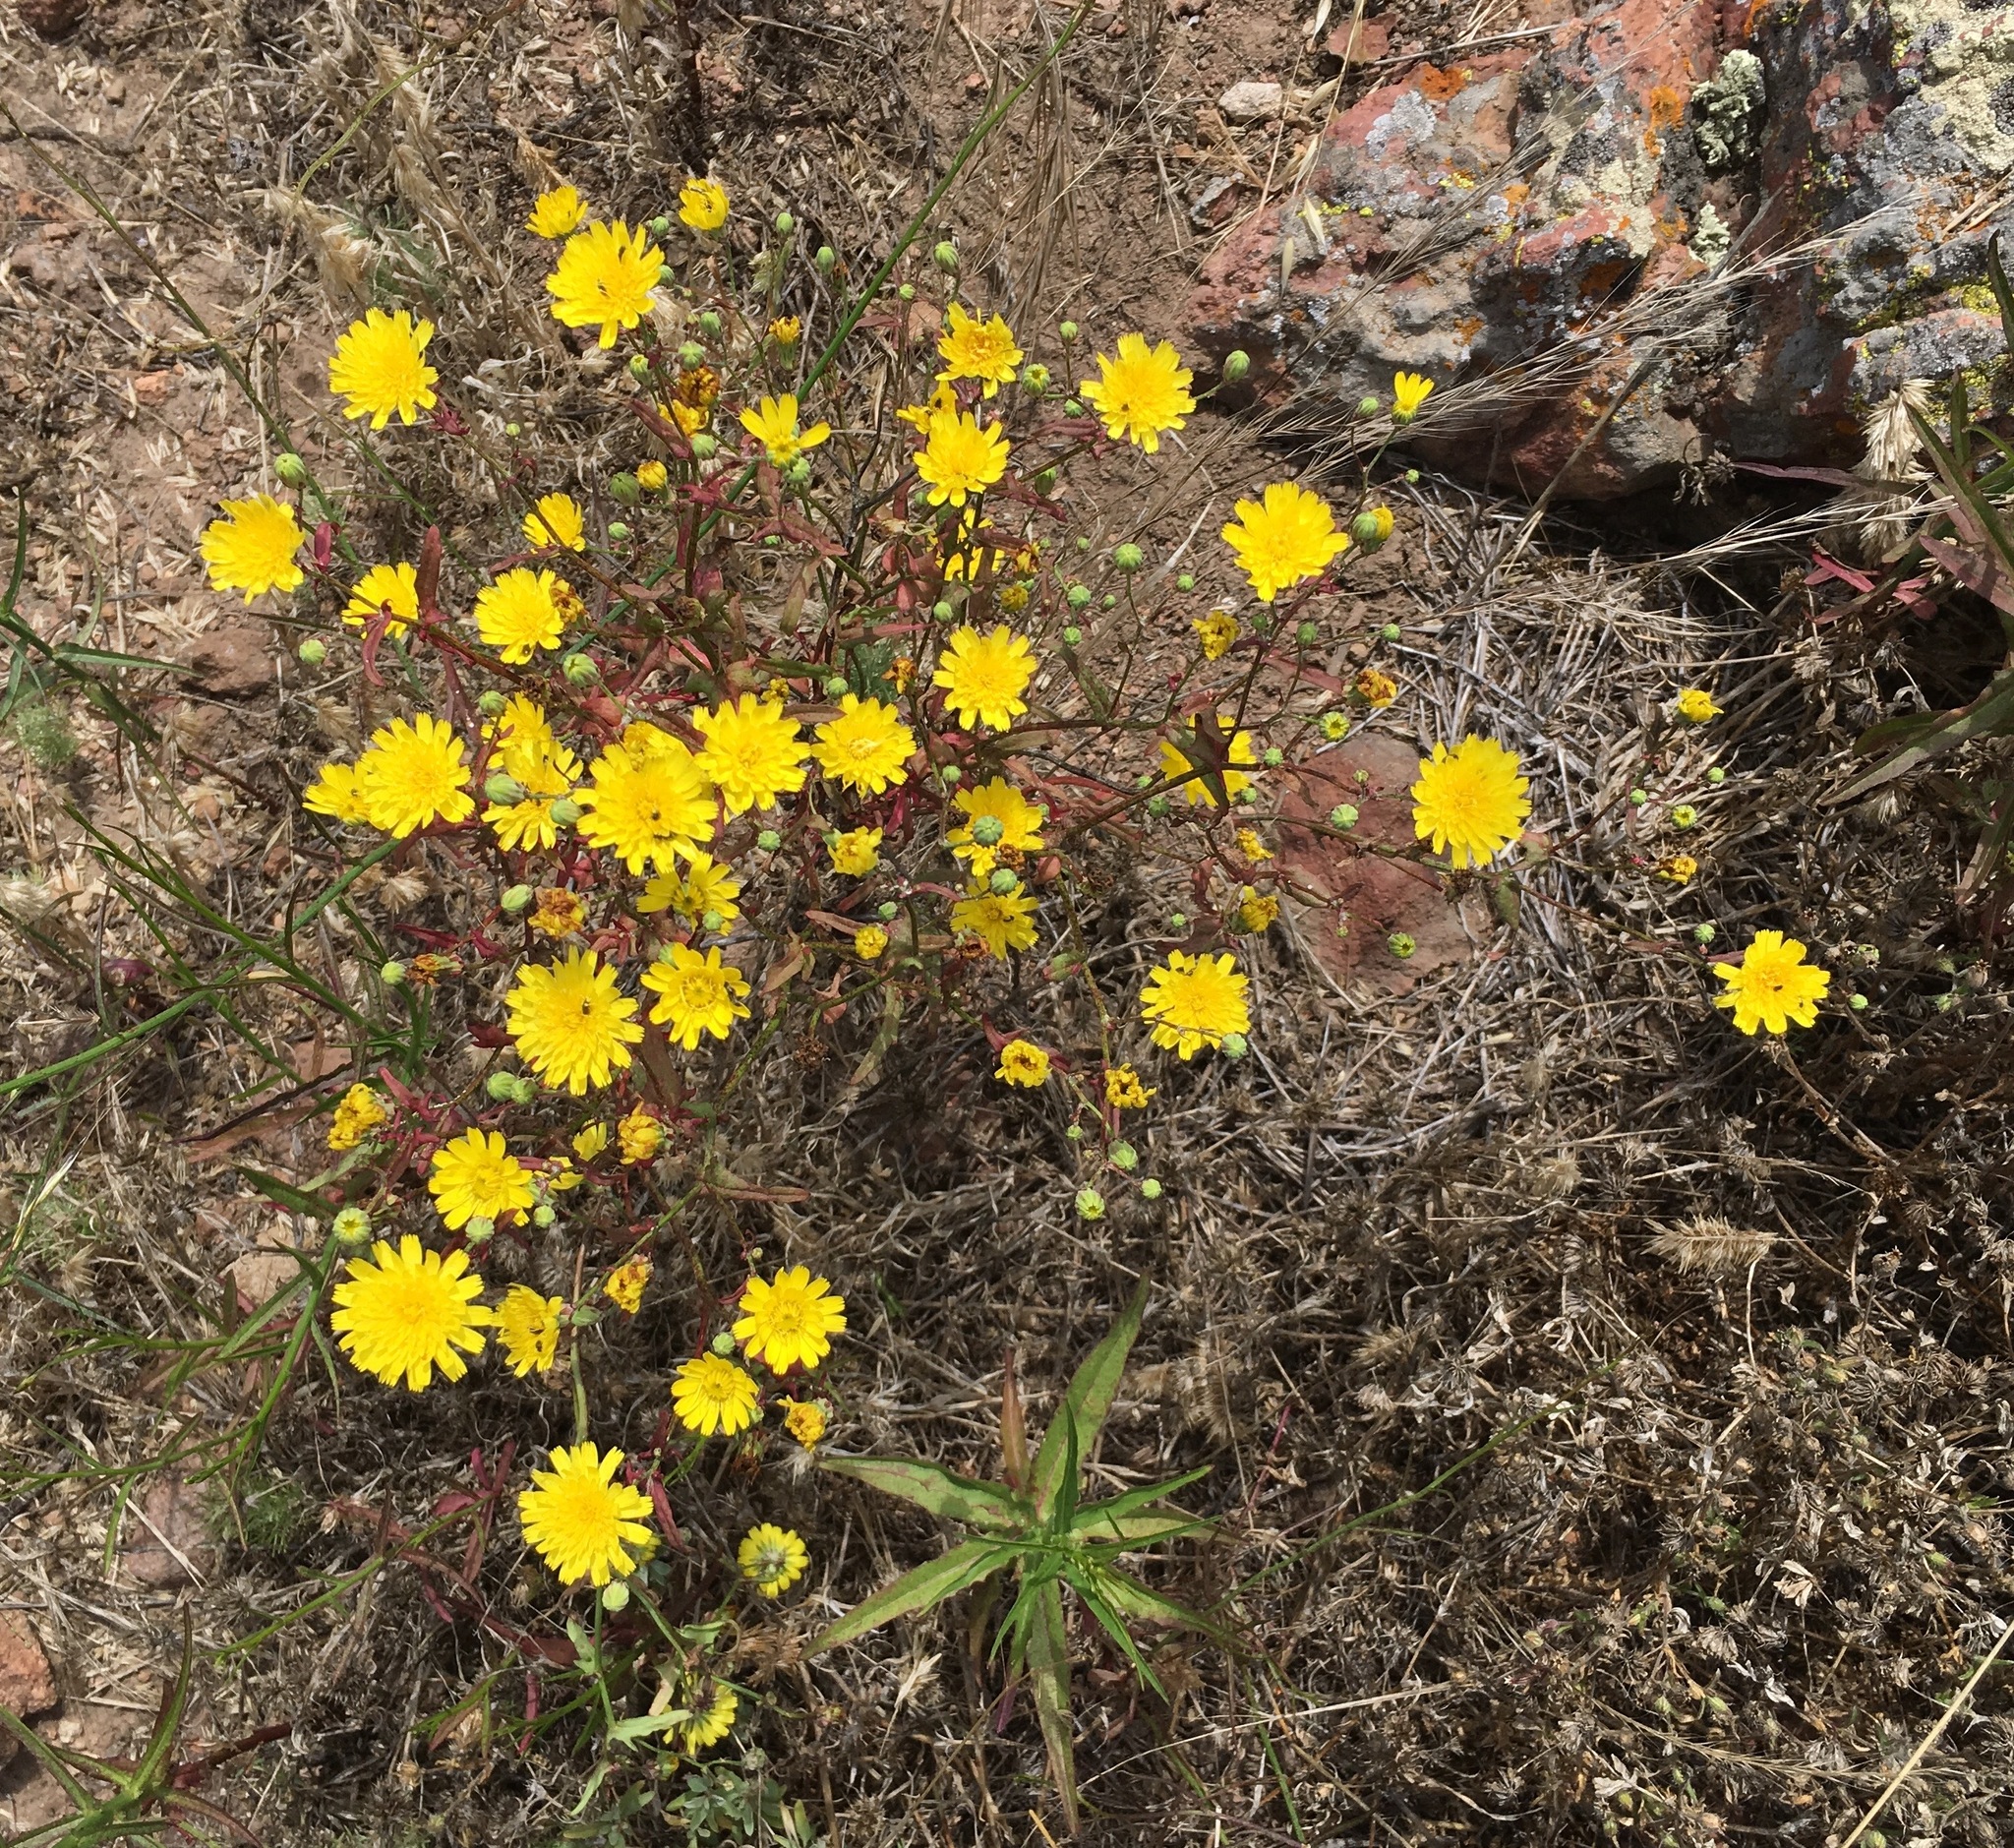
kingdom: Plantae
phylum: Tracheophyta
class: Magnoliopsida
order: Asterales
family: Asteraceae
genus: Malacothrix
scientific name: Malacothrix foliosa
